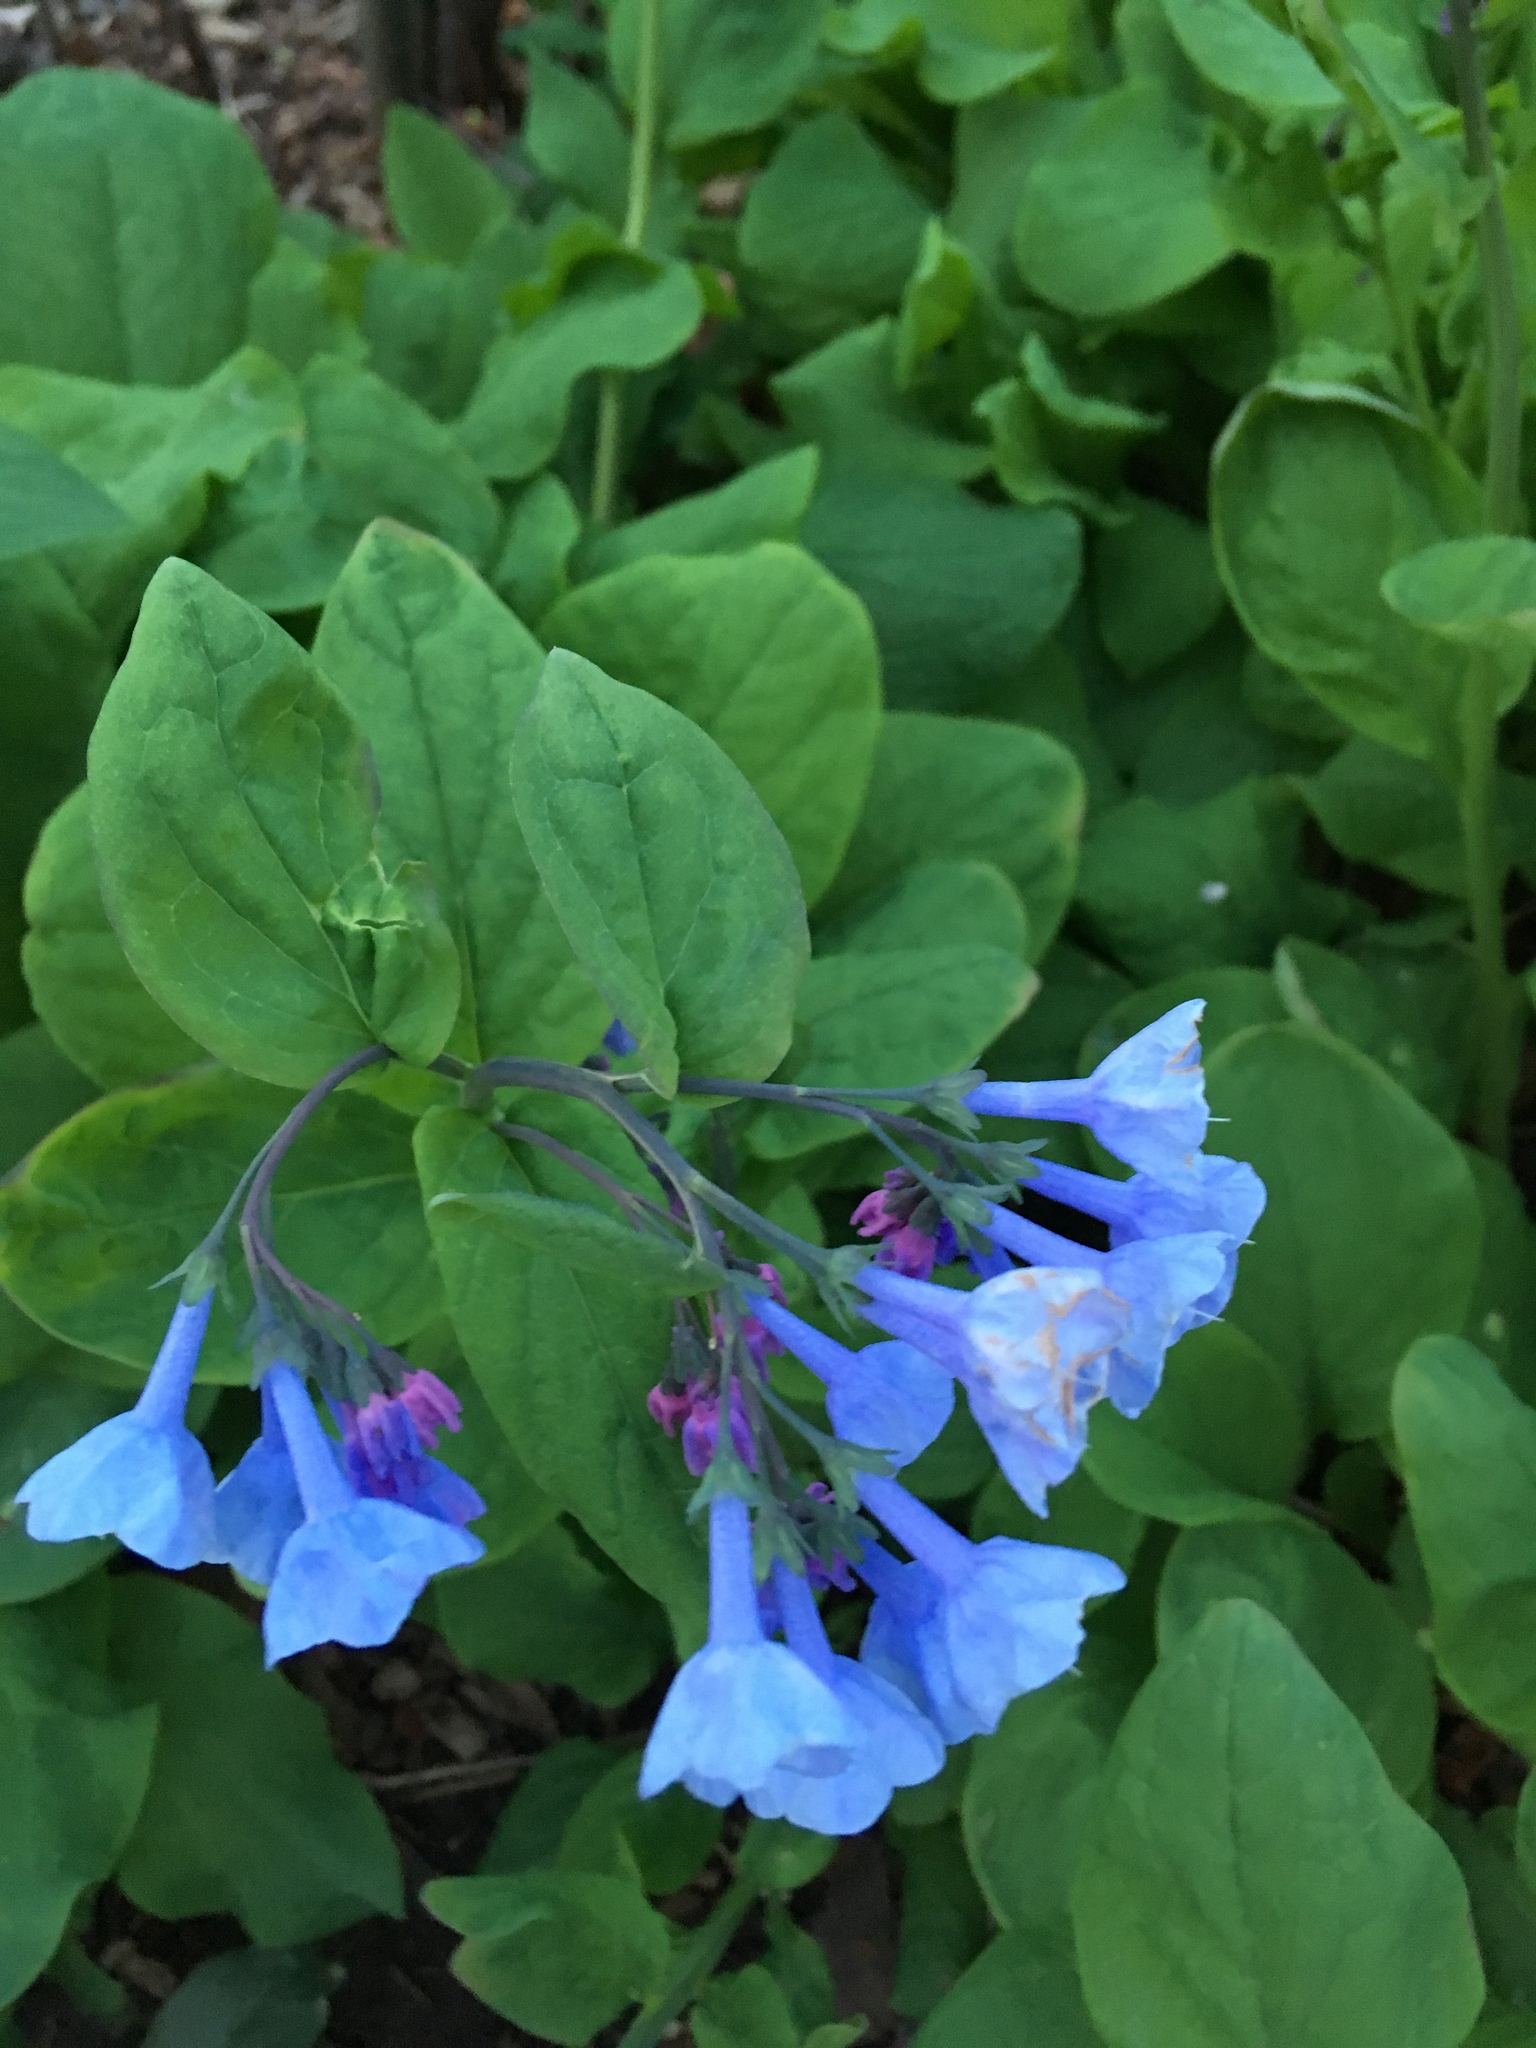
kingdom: Plantae
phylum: Tracheophyta
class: Magnoliopsida
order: Boraginales
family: Boraginaceae
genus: Mertensia
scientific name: Mertensia virginica
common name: Virginia bluebells
